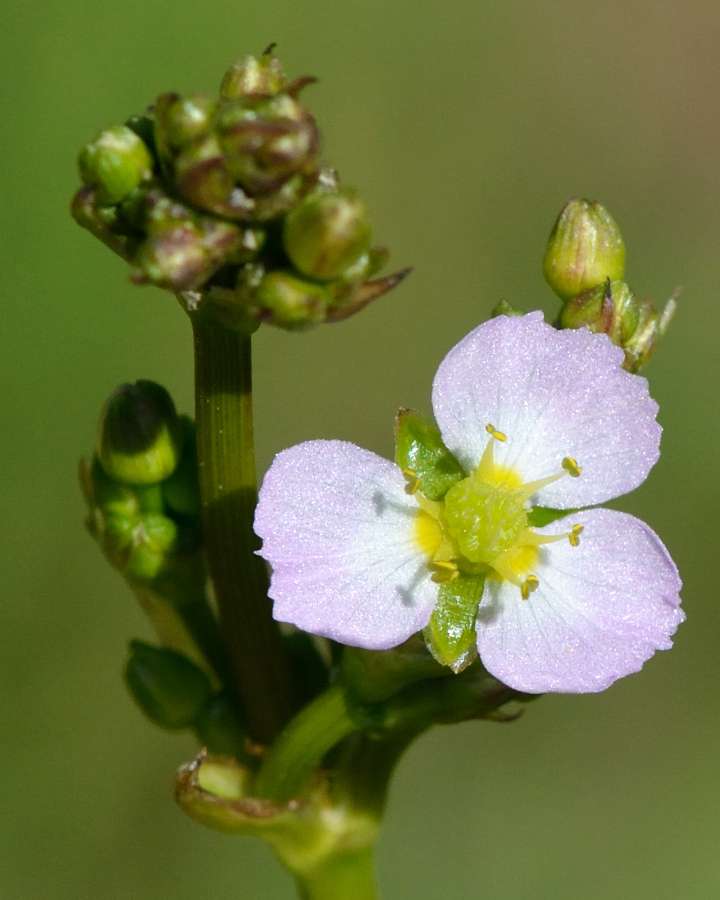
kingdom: Plantae
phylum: Tracheophyta
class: Liliopsida
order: Alismatales
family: Alismataceae
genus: Alisma
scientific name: Alisma plantago-aquatica
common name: Water-plantain
